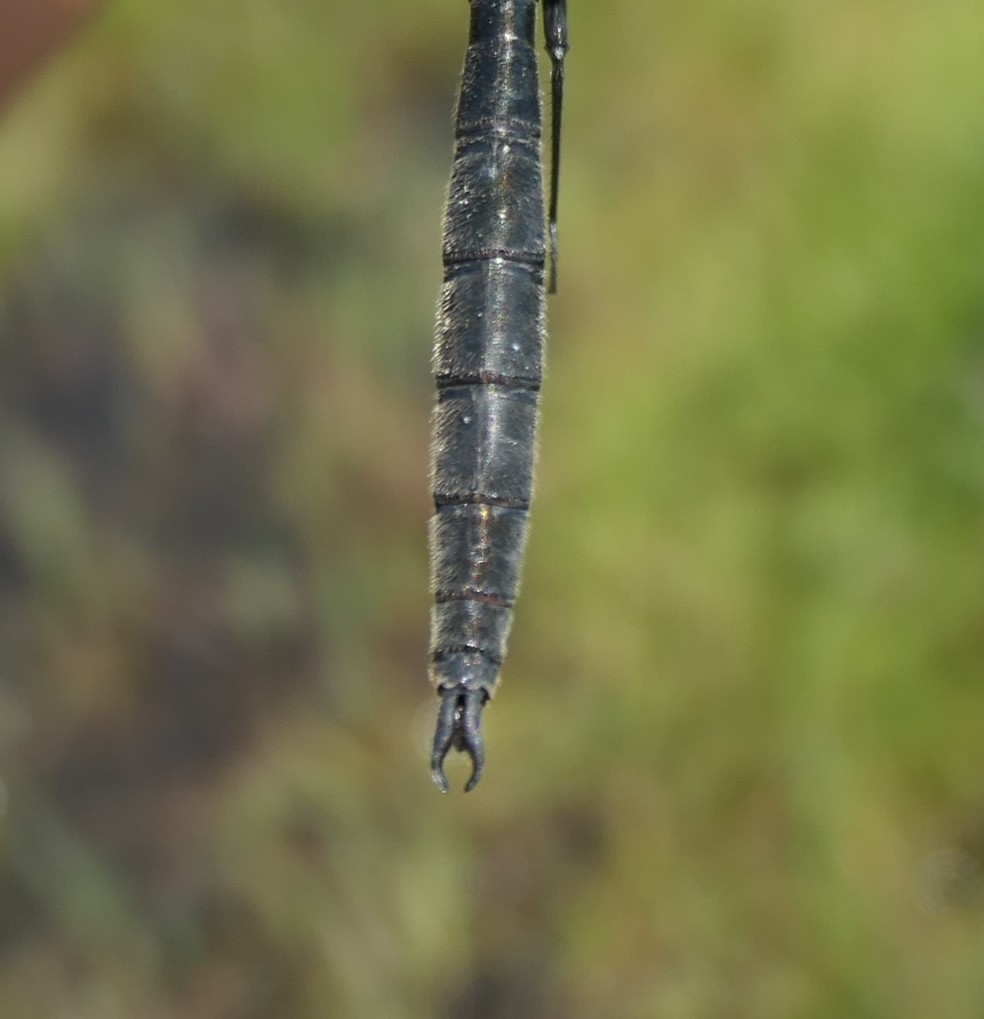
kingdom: Animalia
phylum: Arthropoda
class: Insecta
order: Odonata
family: Corduliidae
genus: Somatochlora
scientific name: Somatochlora arctica
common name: Northern emerald
